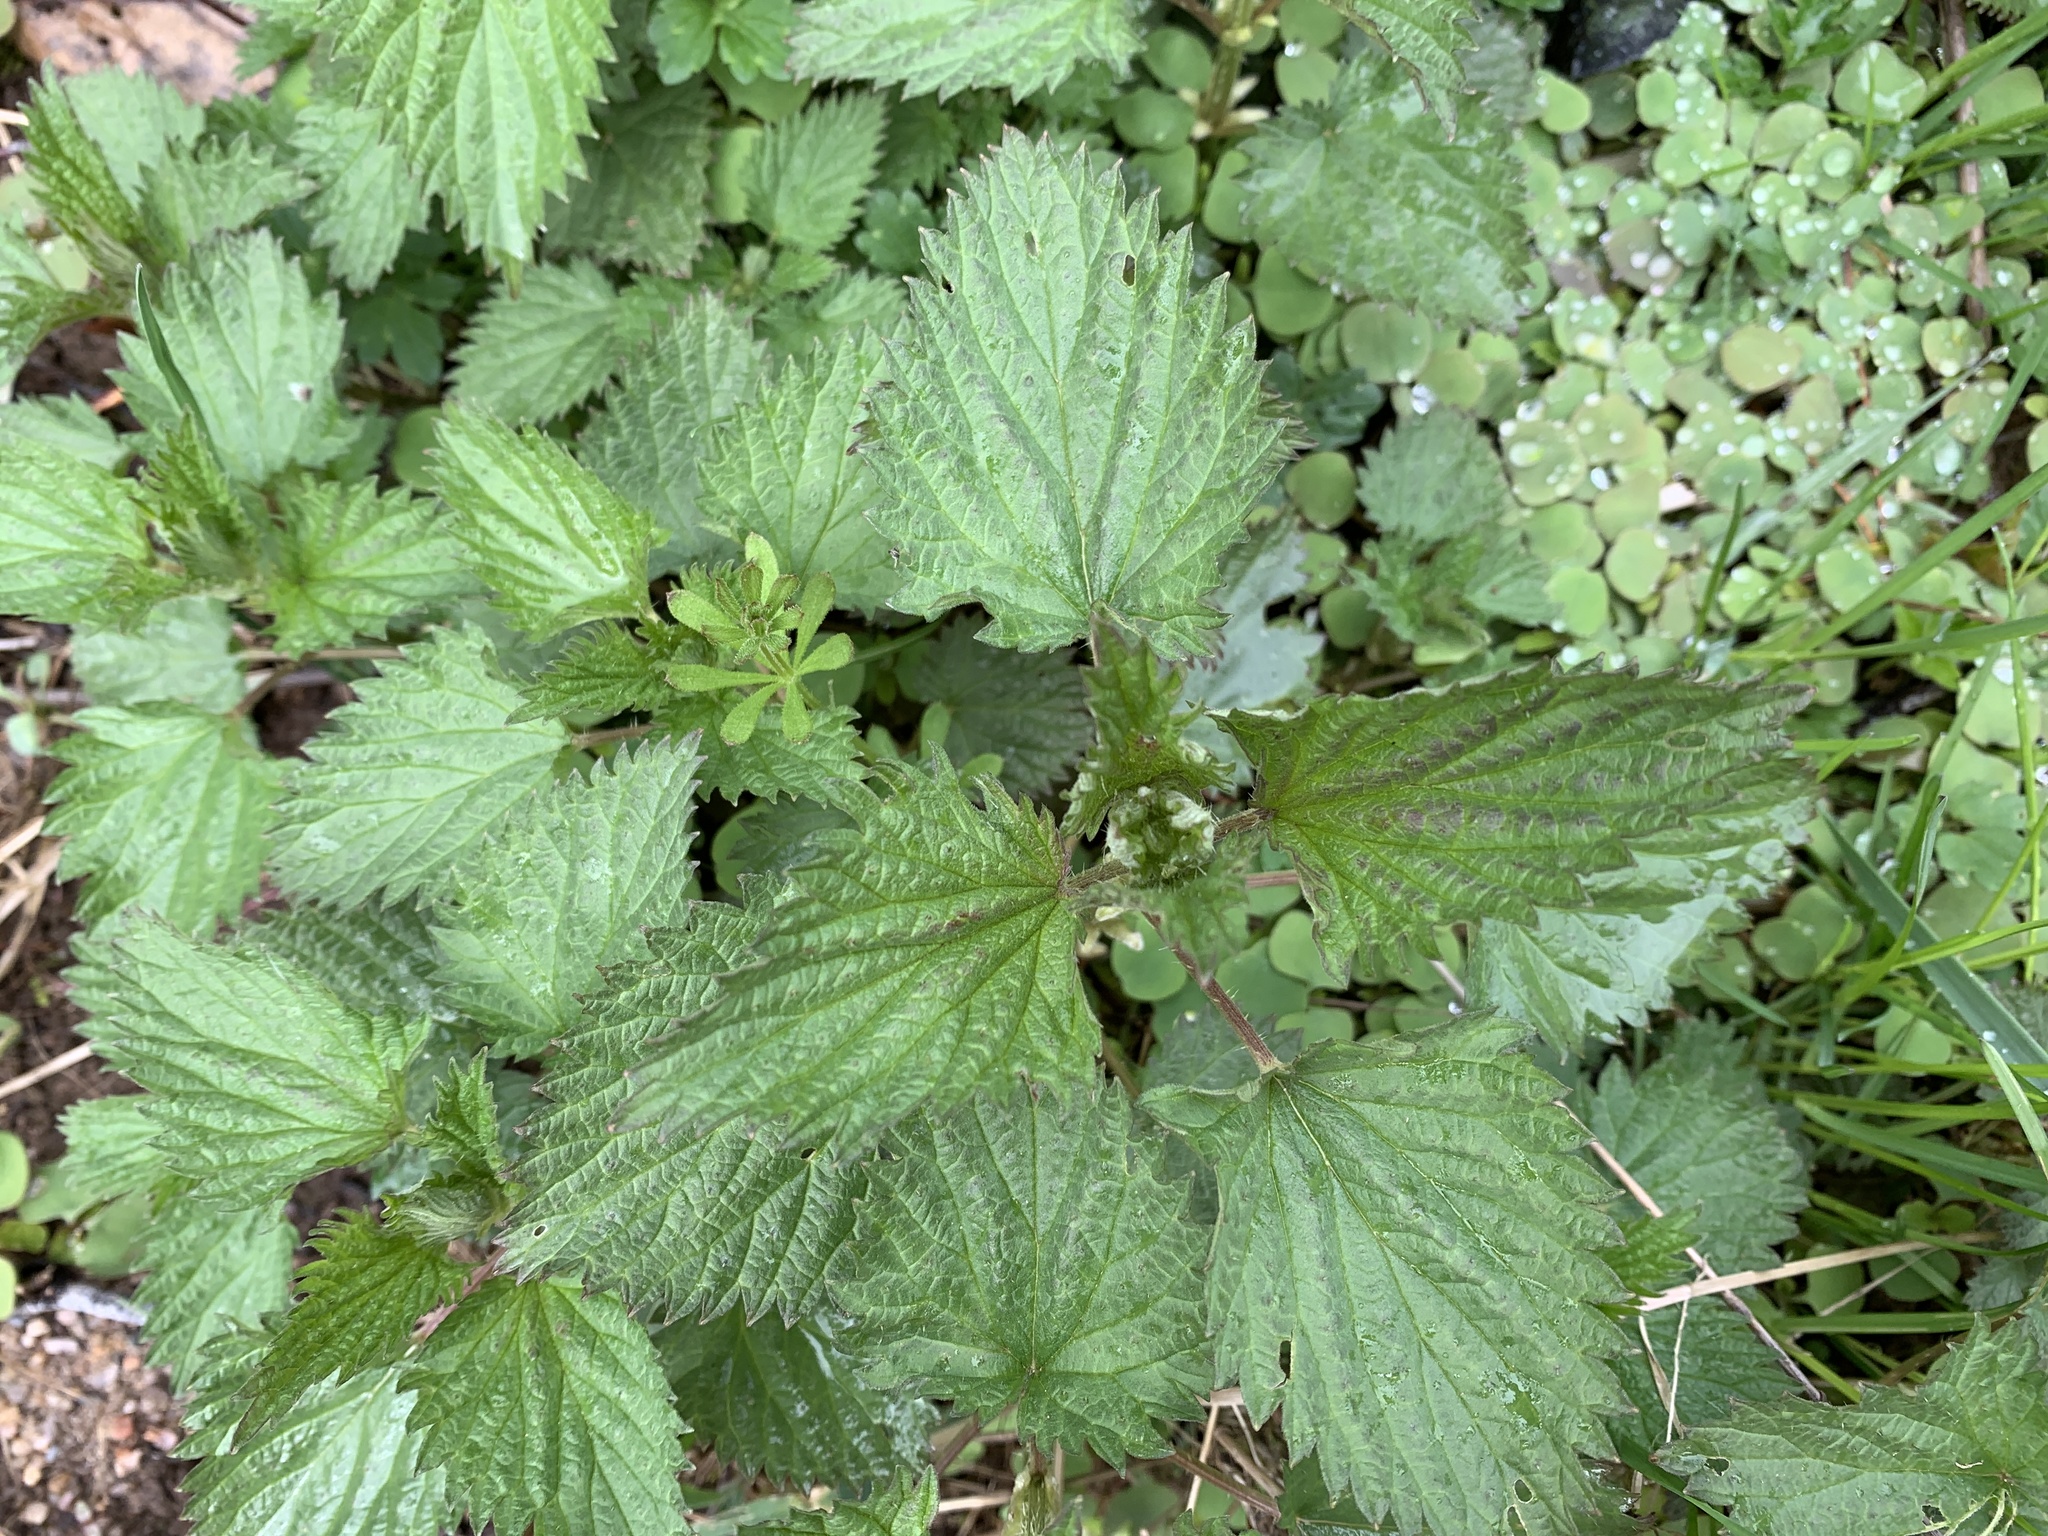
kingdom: Plantae
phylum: Tracheophyta
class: Magnoliopsida
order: Rosales
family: Urticaceae
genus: Urtica
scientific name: Urtica dioica
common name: Common nettle
